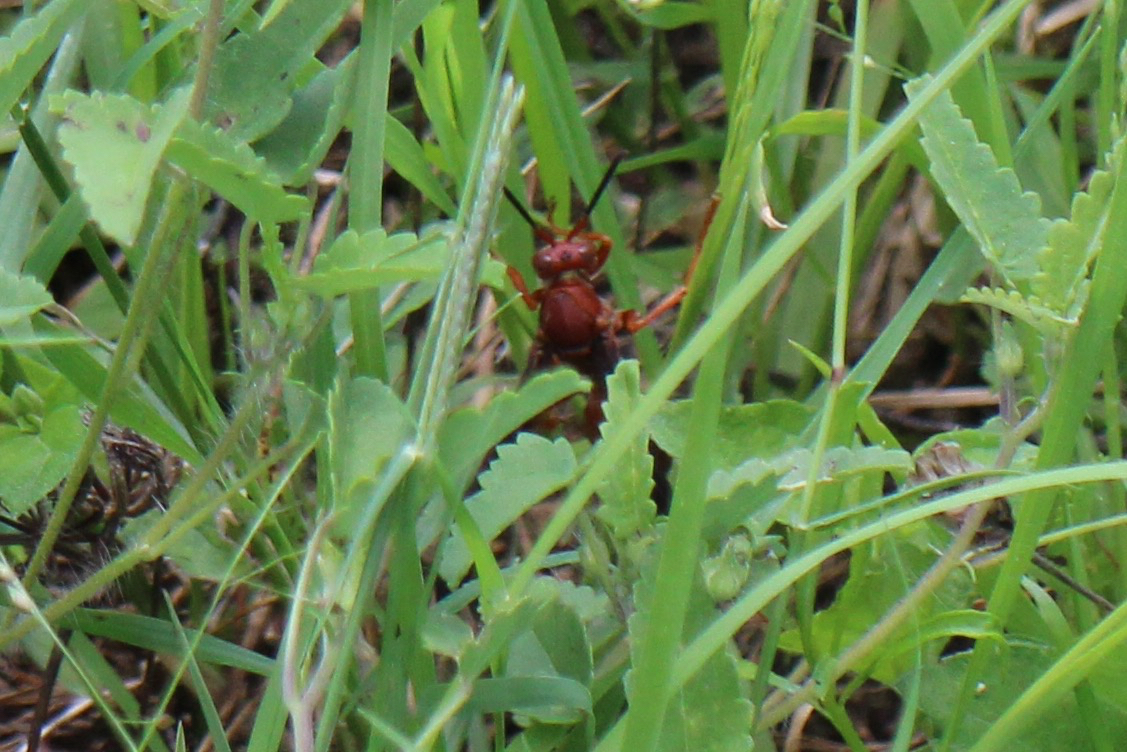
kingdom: Animalia
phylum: Arthropoda
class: Insecta
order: Hymenoptera
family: Eumenidae
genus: Polistes
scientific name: Polistes
